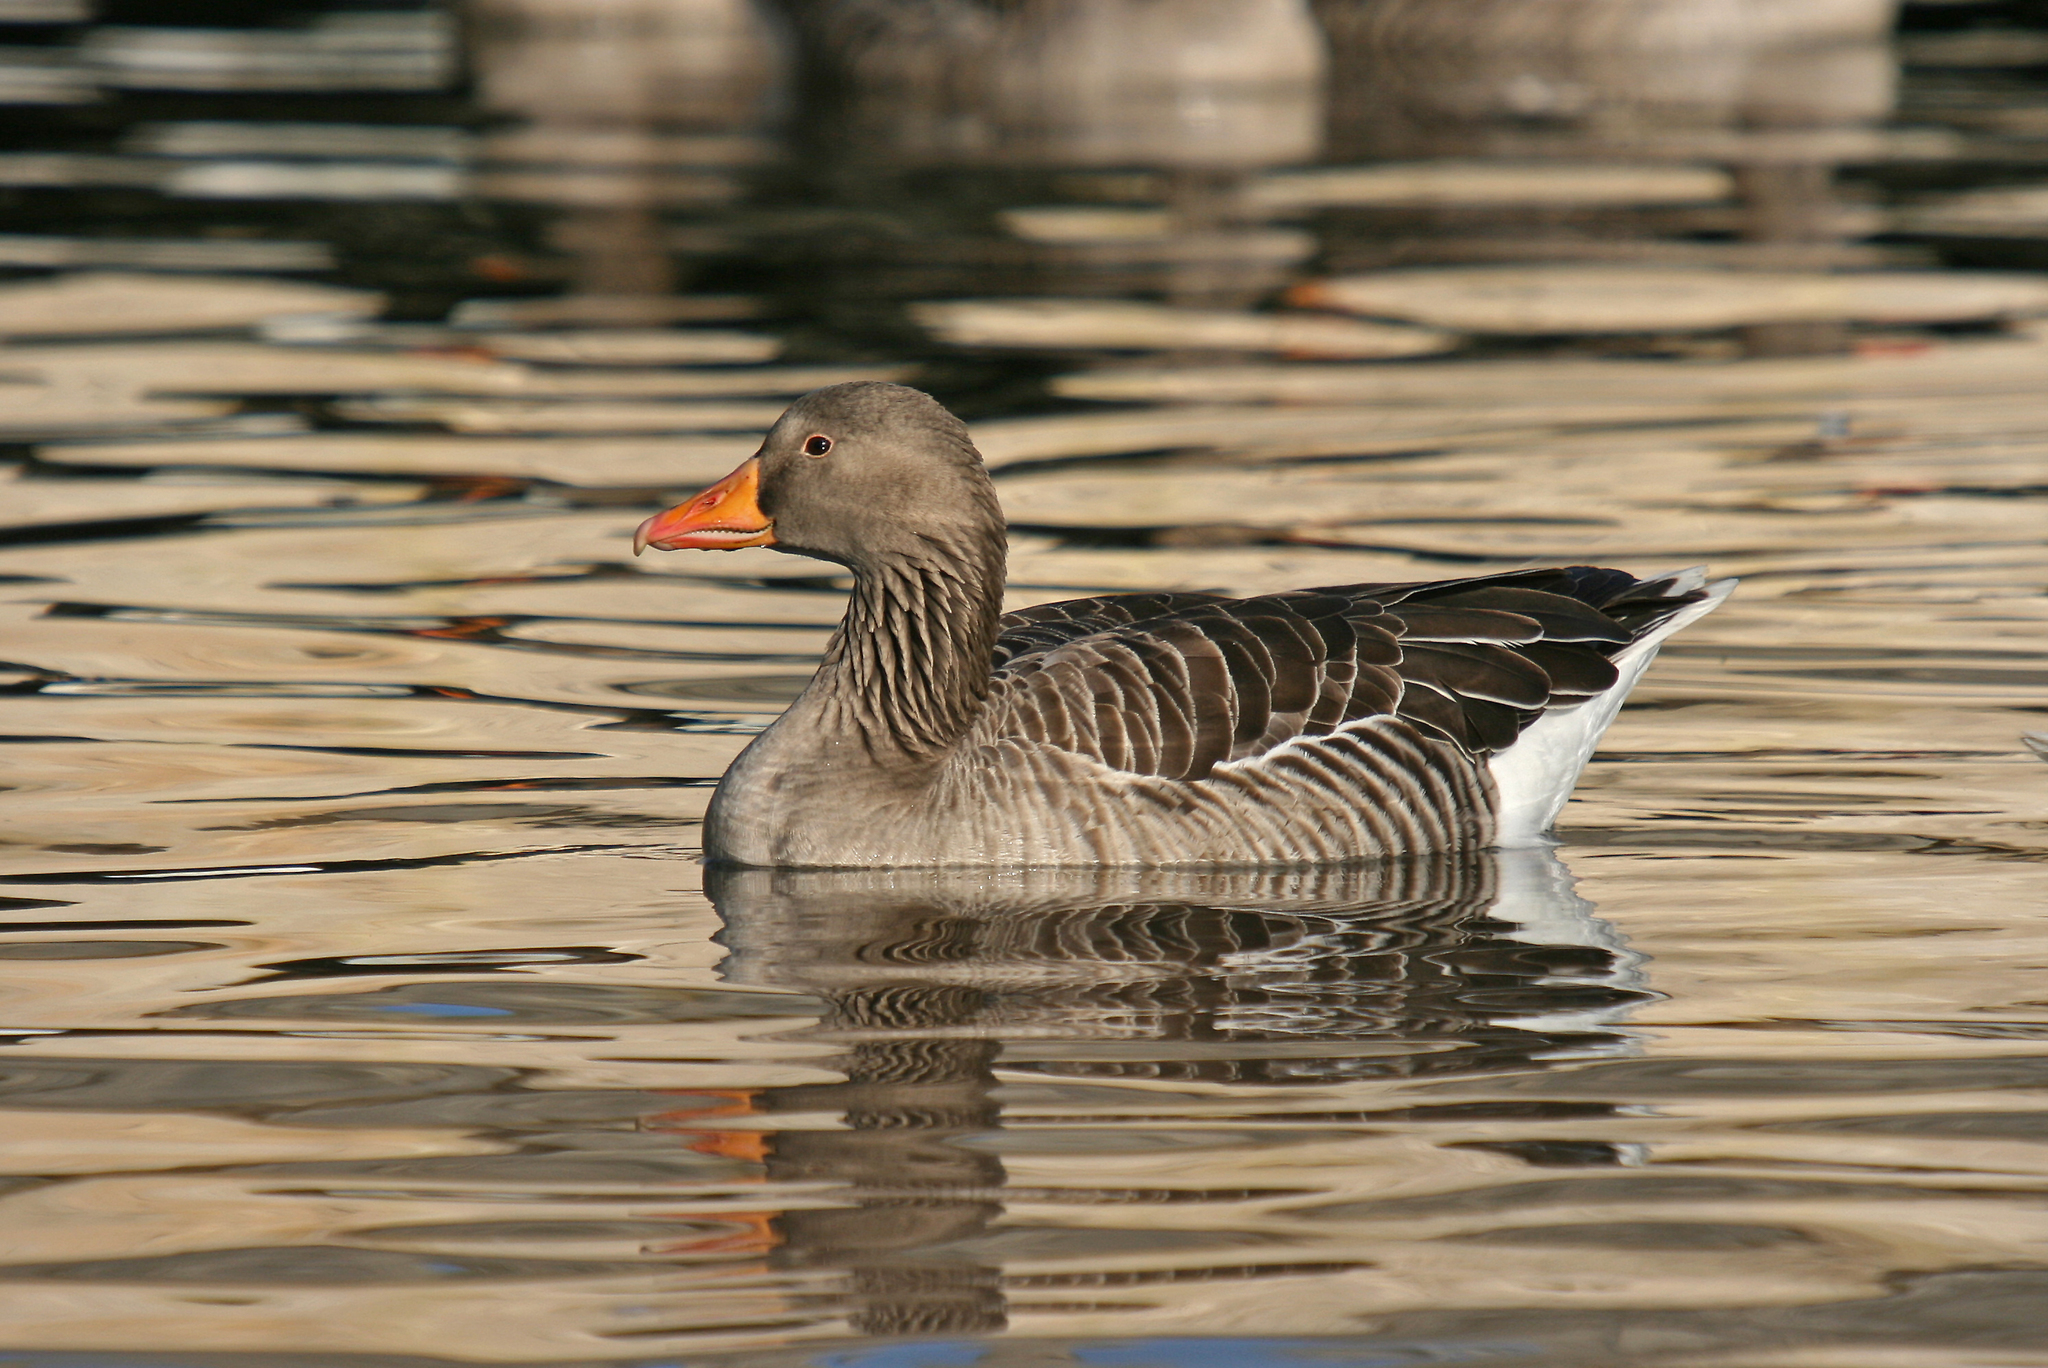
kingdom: Animalia
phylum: Chordata
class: Aves
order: Anseriformes
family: Anatidae
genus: Anser
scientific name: Anser anser
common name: Greylag goose
